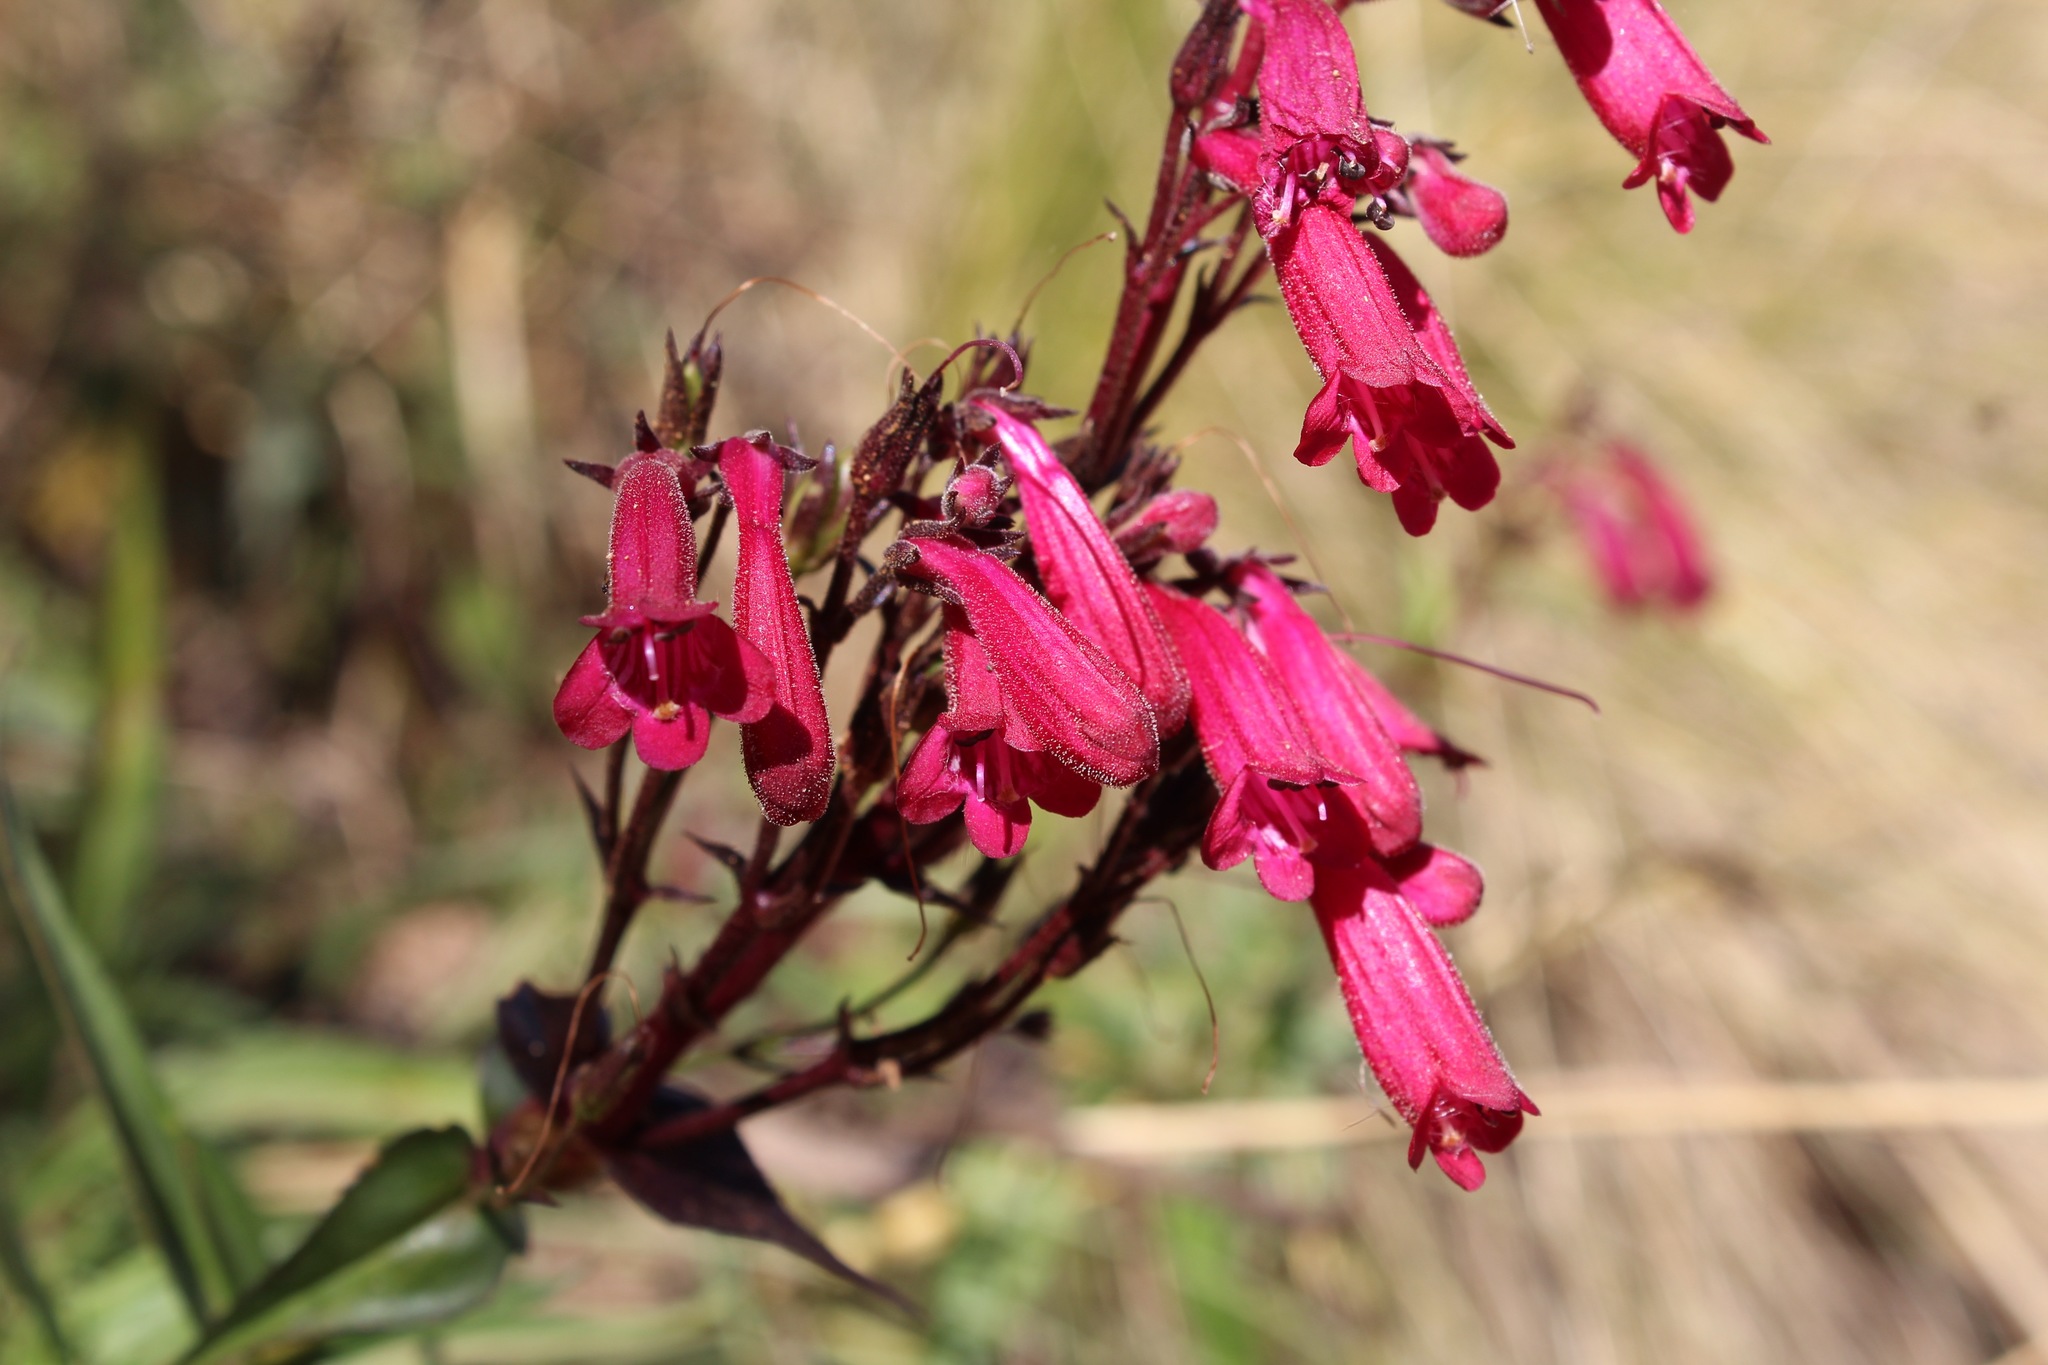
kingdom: Plantae
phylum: Tracheophyta
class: Magnoliopsida
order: Lamiales
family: Plantaginaceae
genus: Penstemon
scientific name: Penstemon roseus
